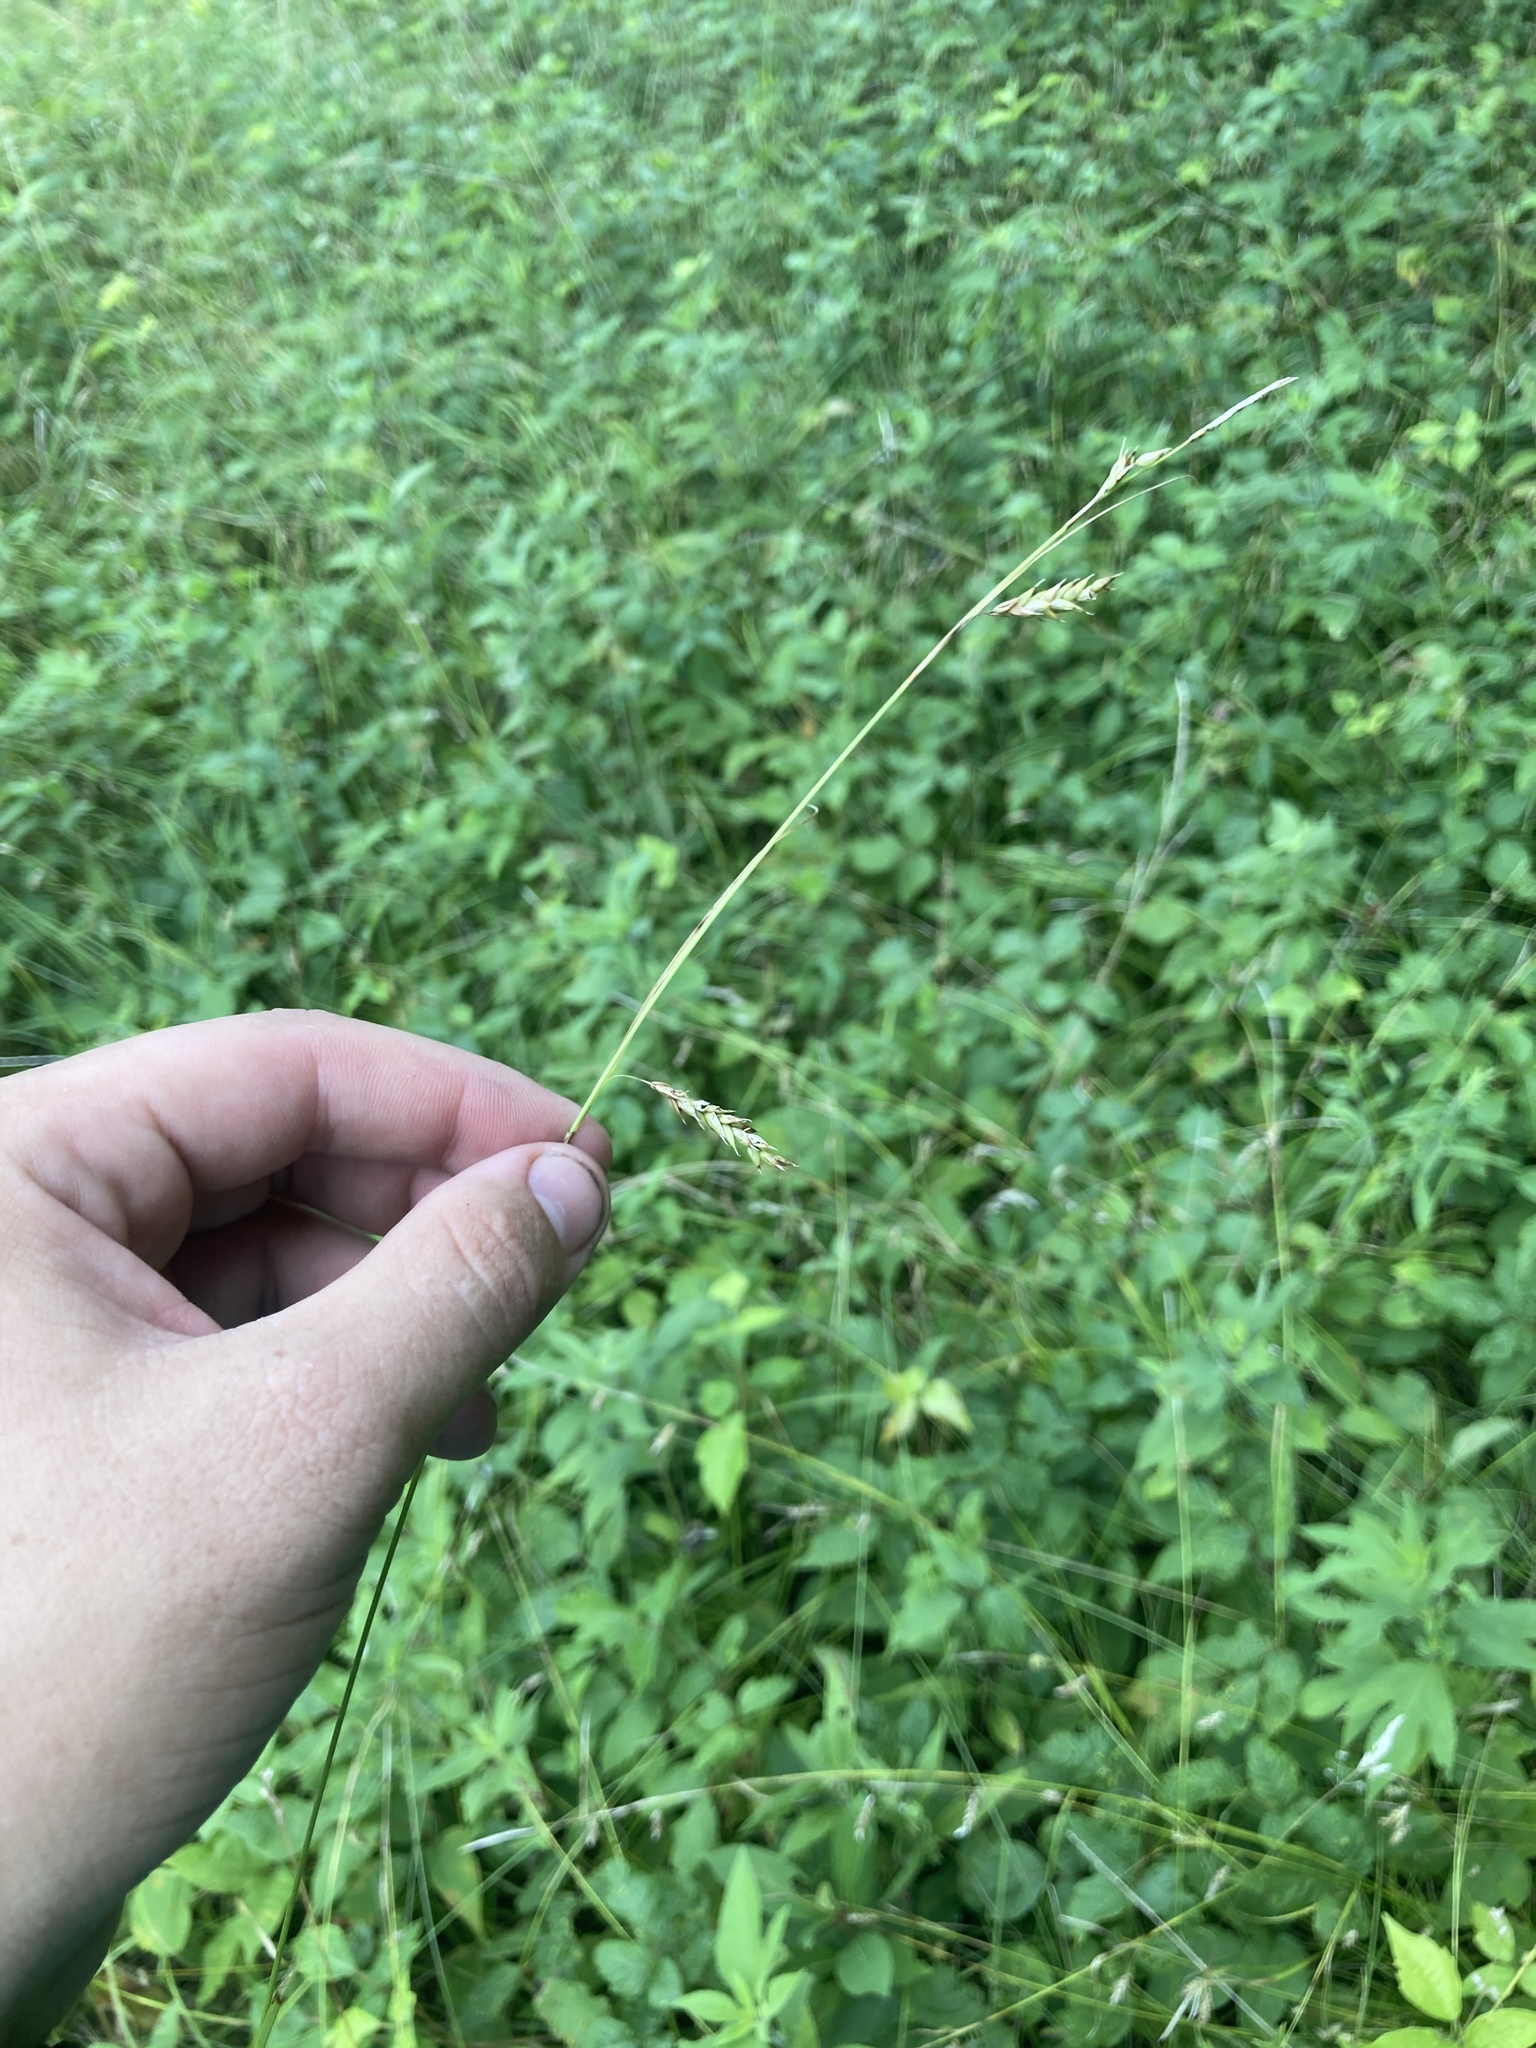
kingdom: Plantae
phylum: Tracheophyta
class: Liliopsida
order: Poales
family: Cyperaceae
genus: Carex
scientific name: Carex cherokeensis
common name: Cherokee sedge
